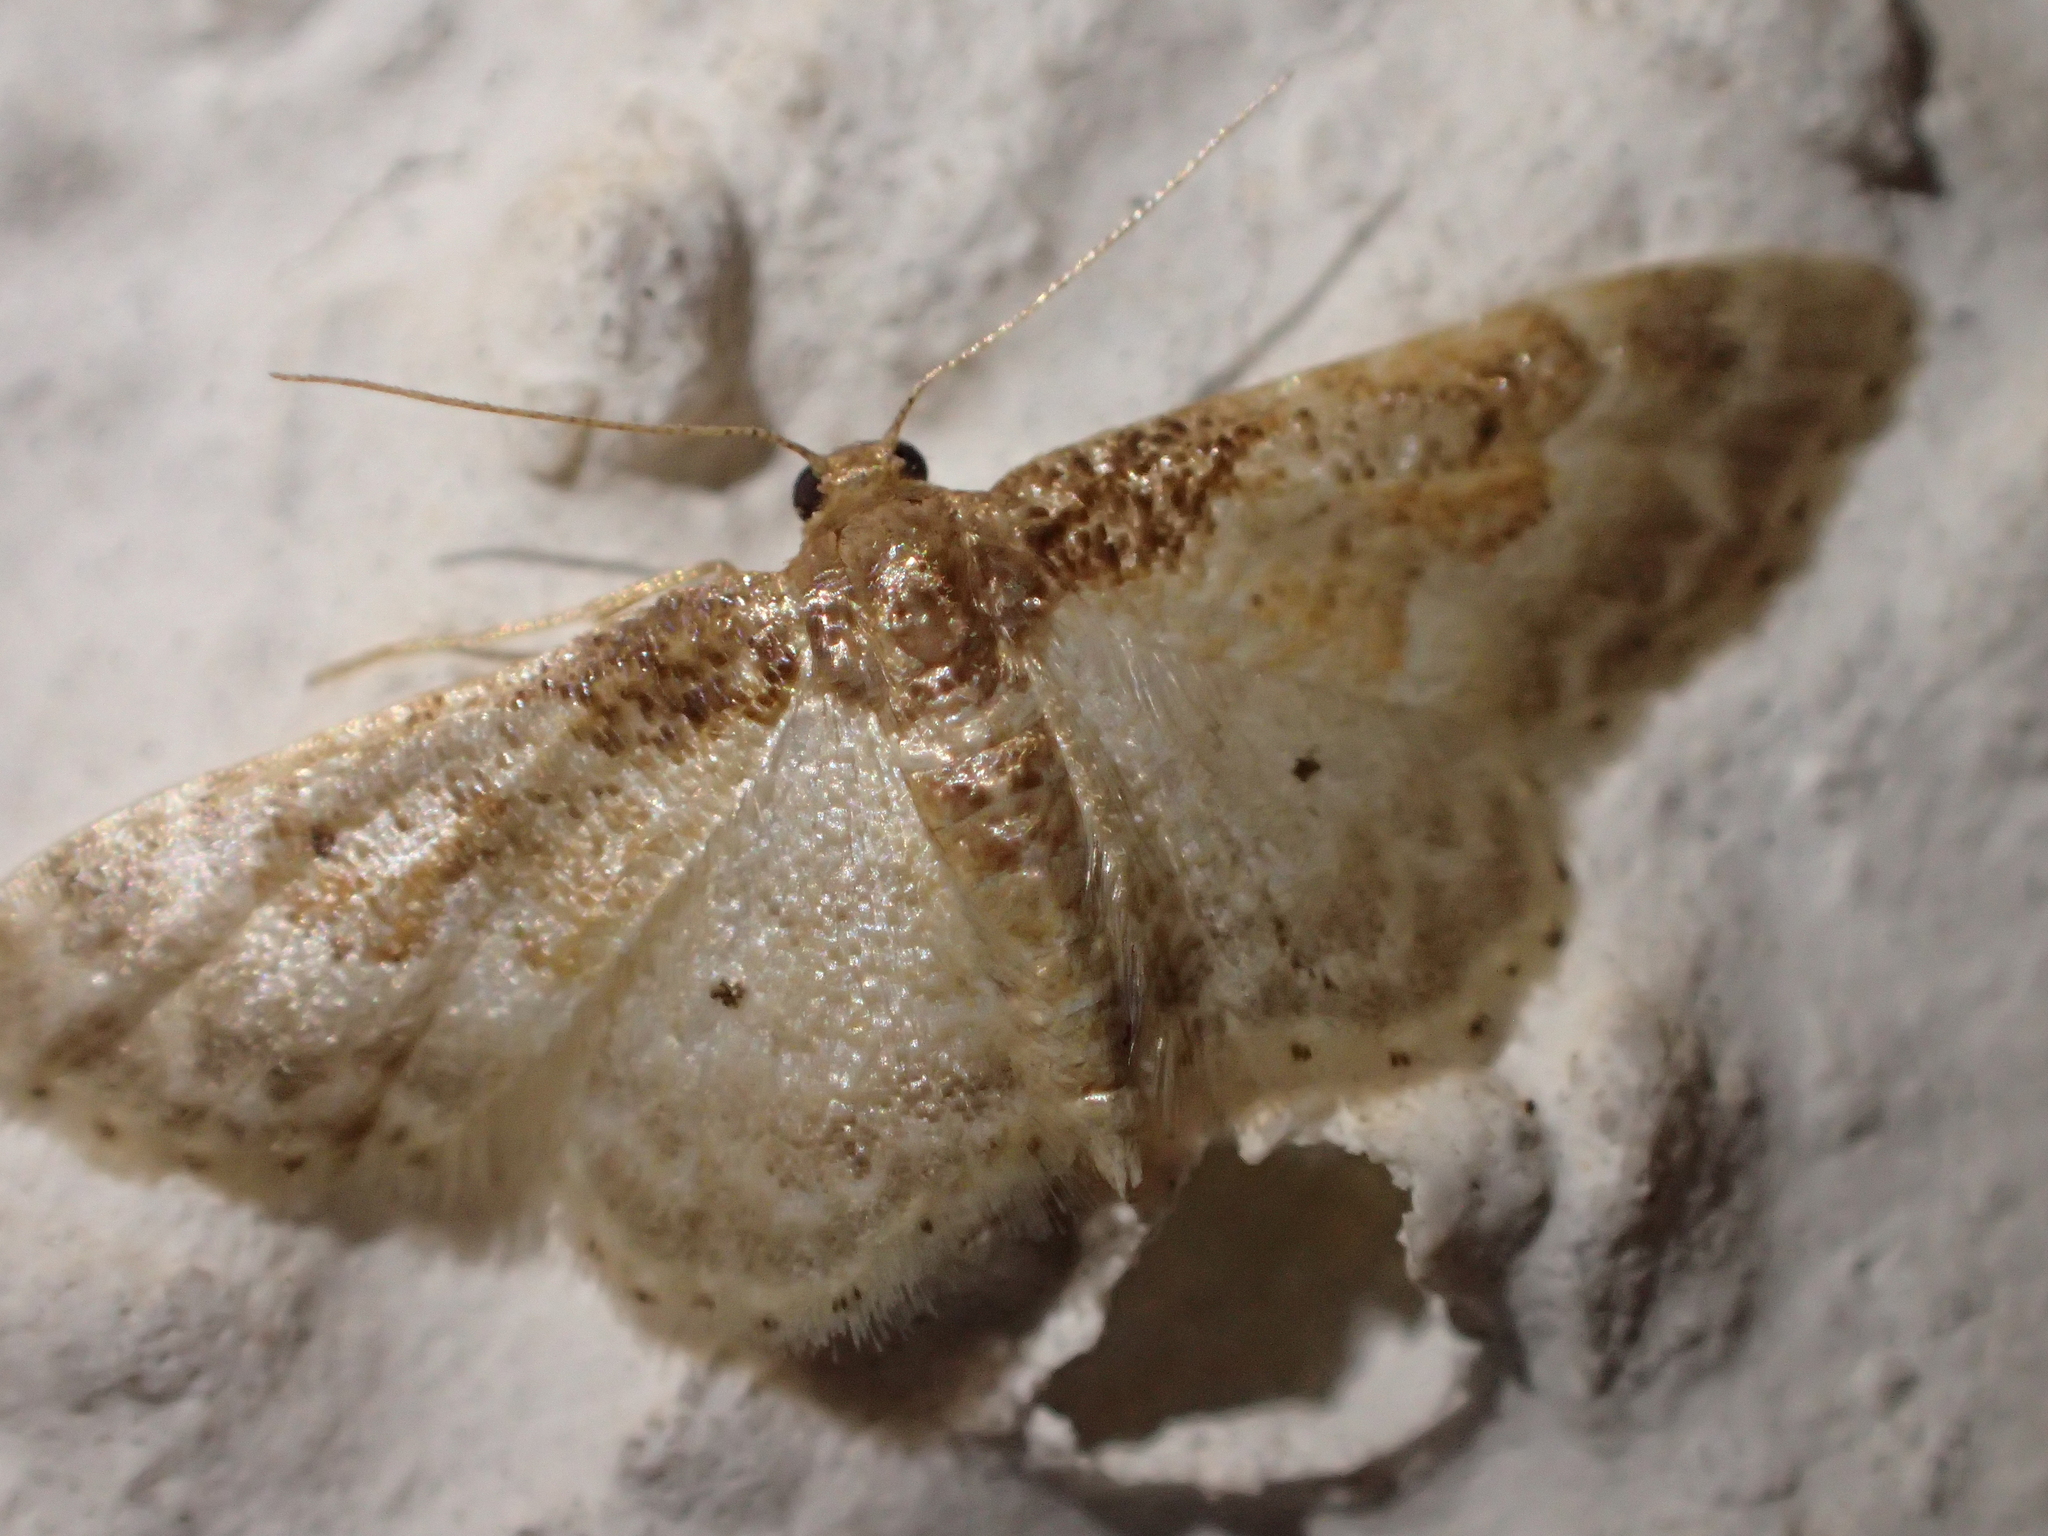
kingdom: Animalia
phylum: Arthropoda
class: Insecta
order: Lepidoptera
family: Geometridae
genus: Idaea
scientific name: Idaea rusticata
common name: Least carpet
